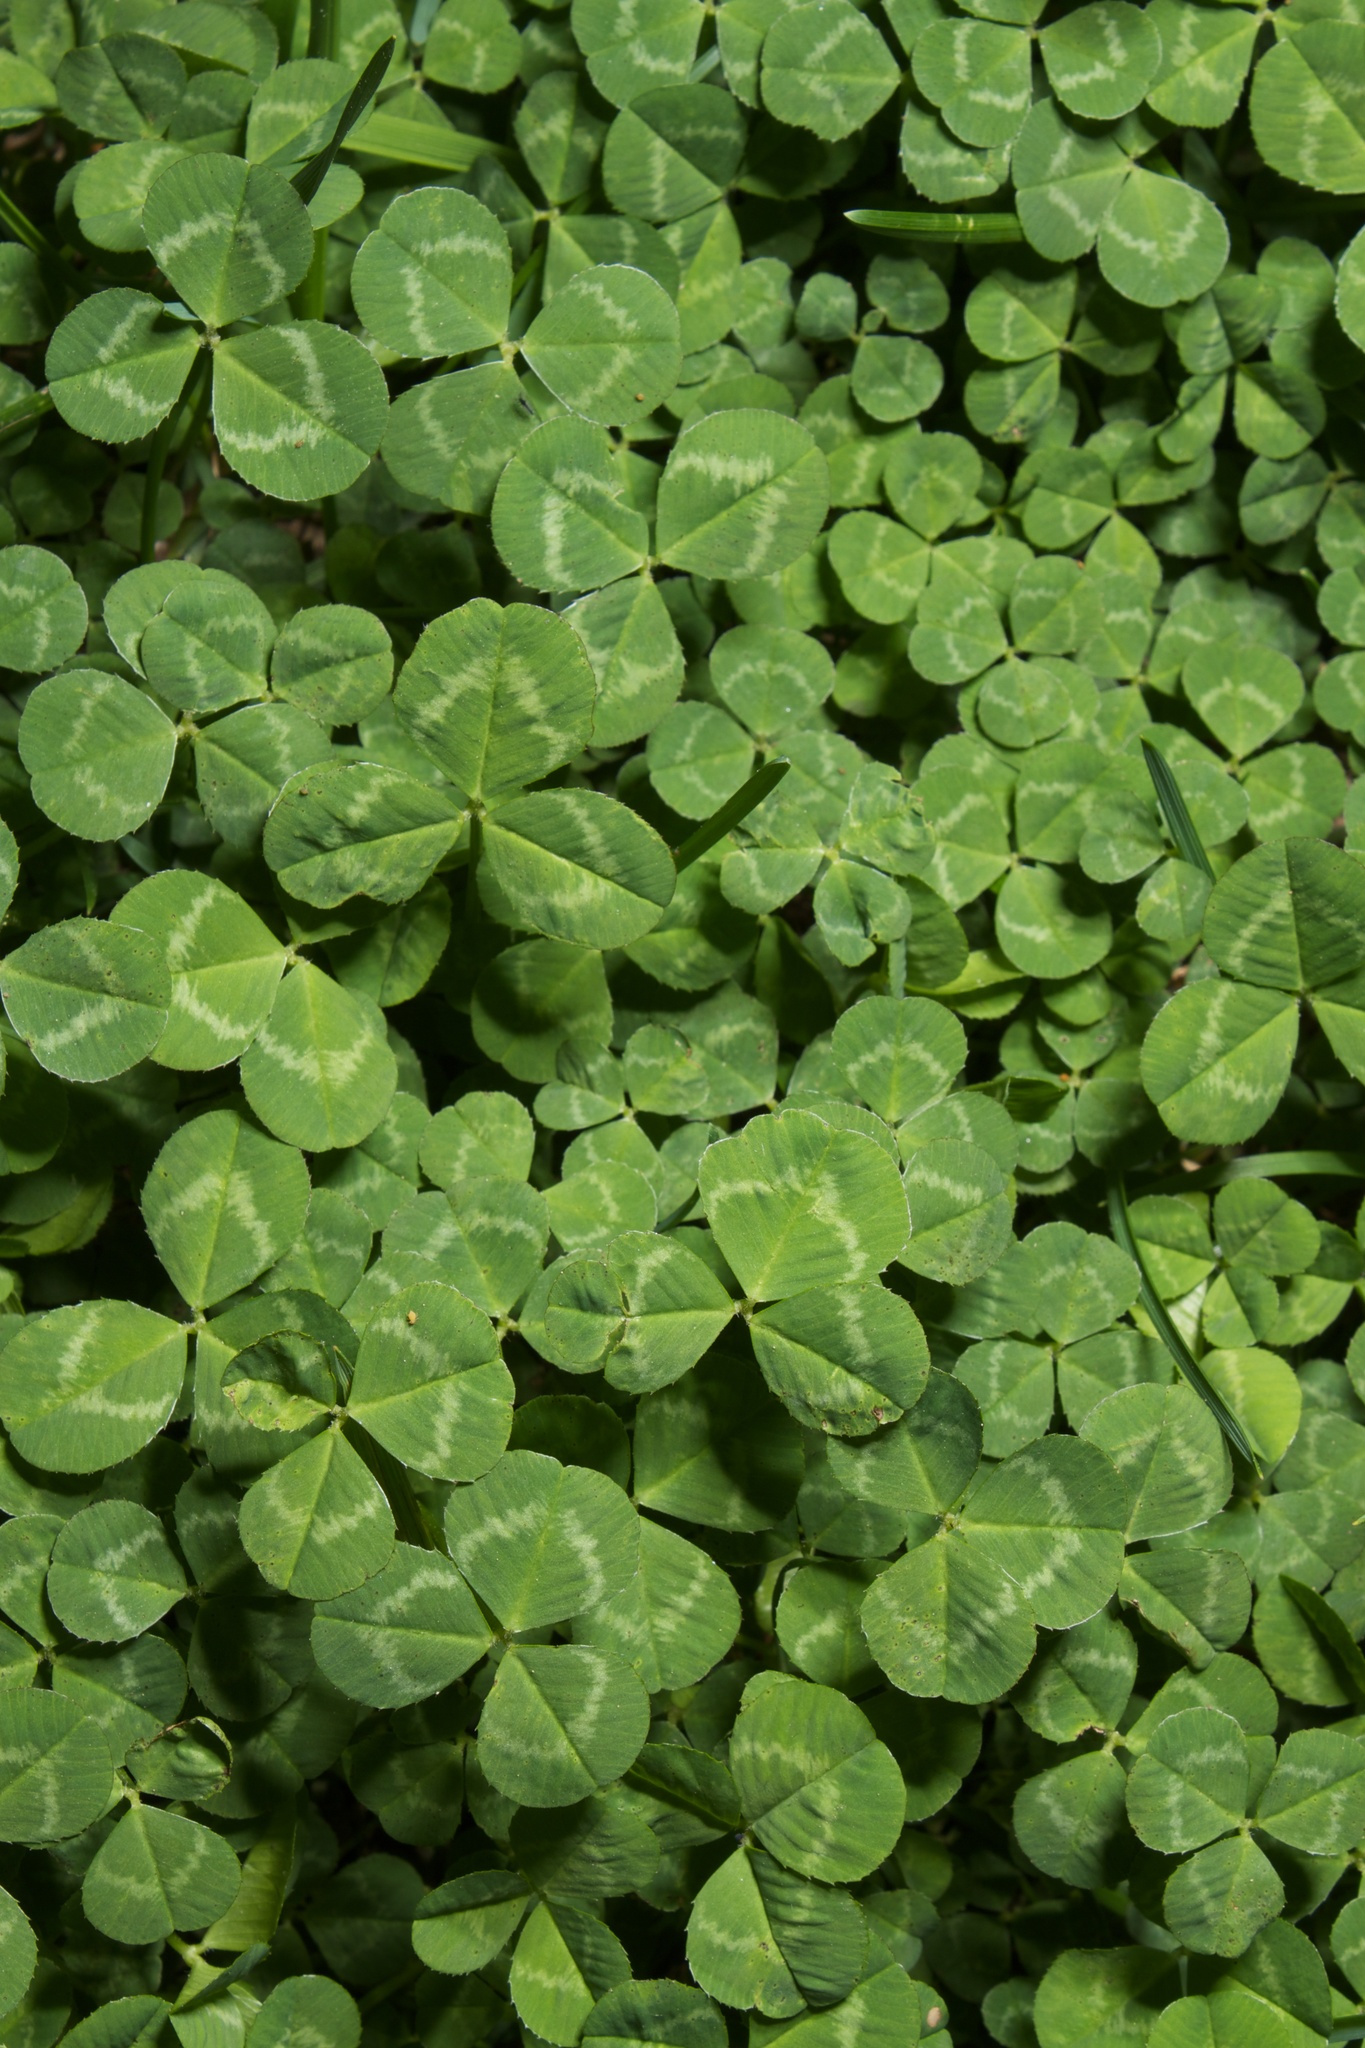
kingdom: Plantae
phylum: Tracheophyta
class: Magnoliopsida
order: Fabales
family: Fabaceae
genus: Trifolium
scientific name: Trifolium repens
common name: White clover
